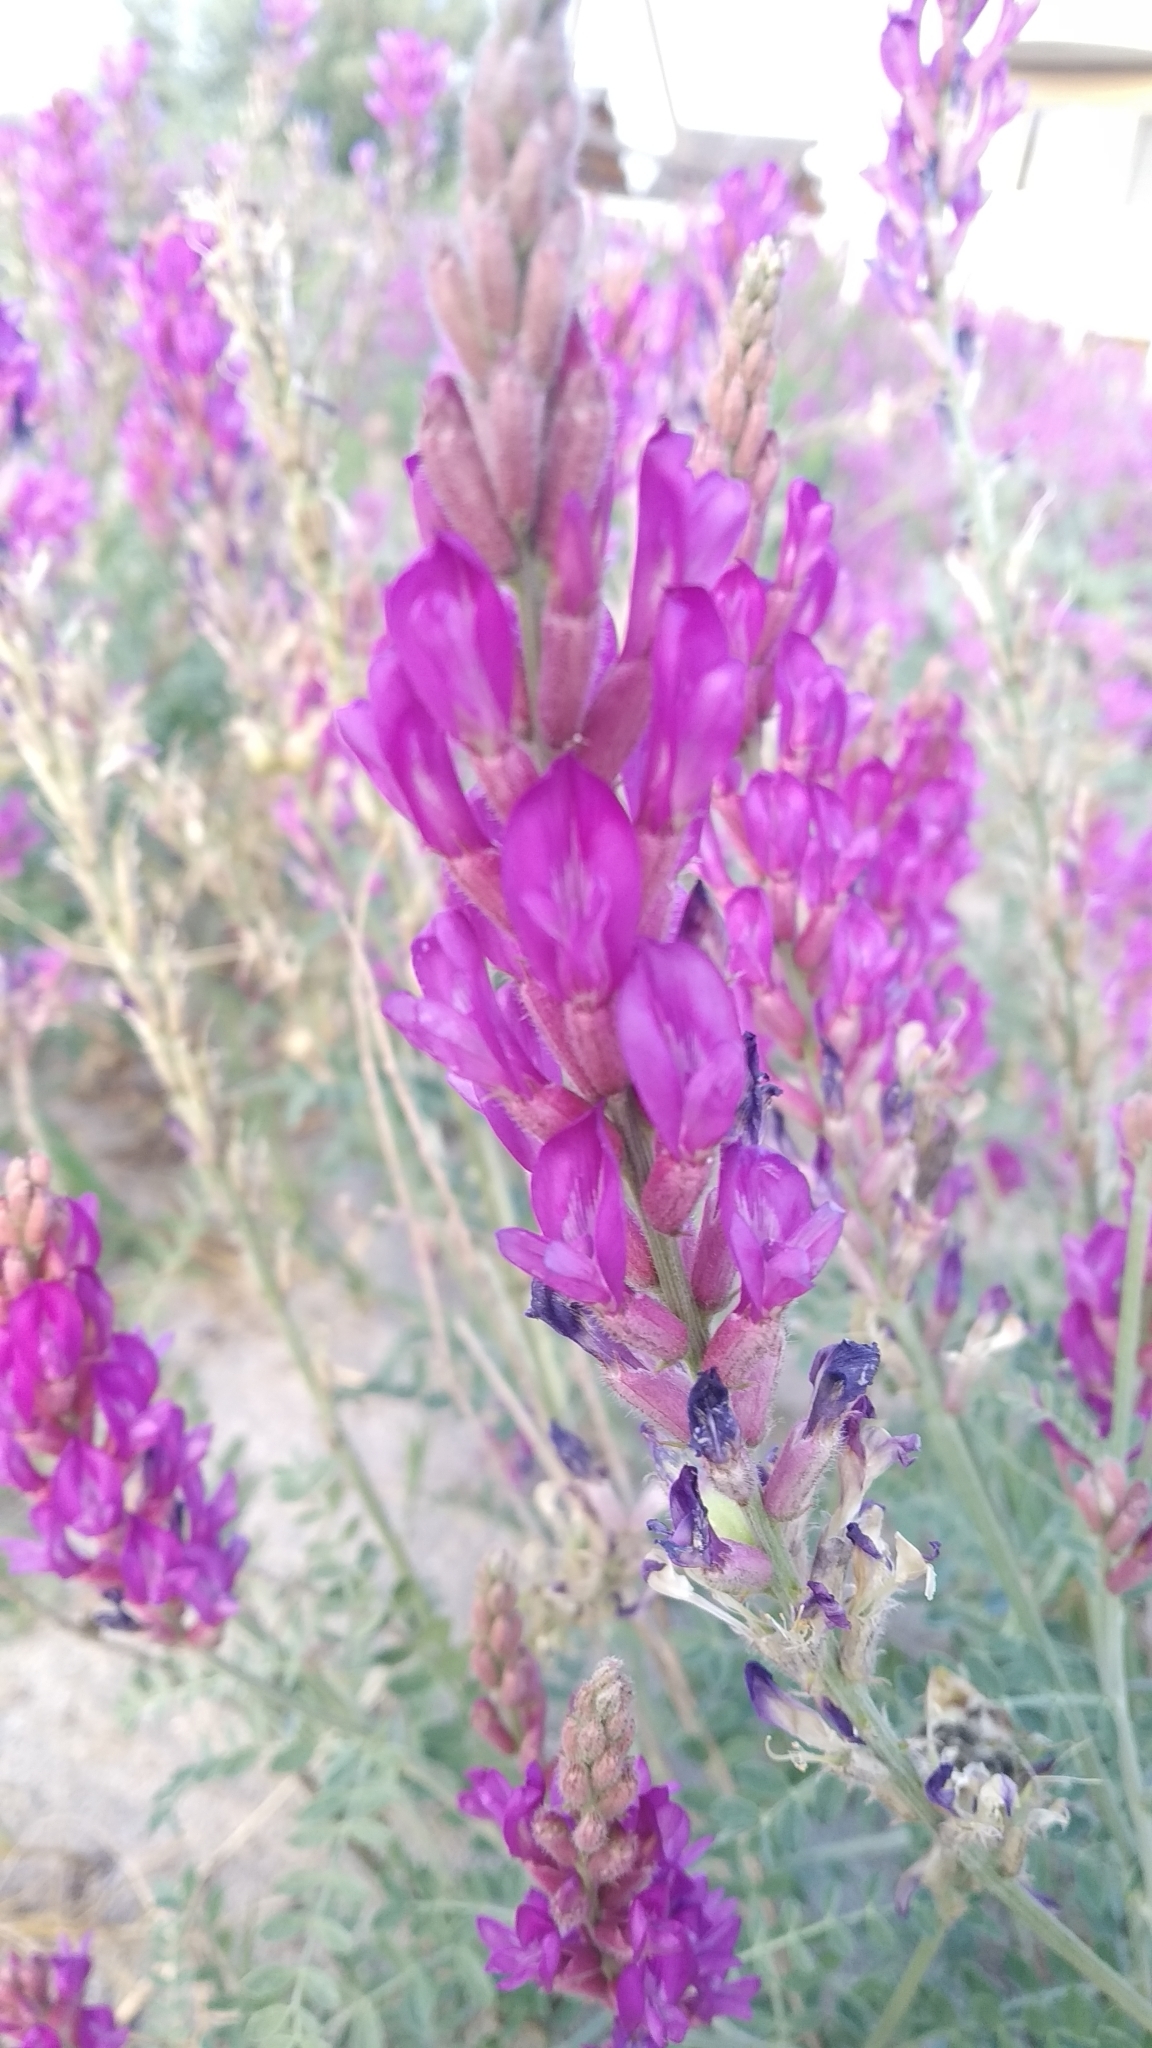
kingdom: Plantae
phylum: Tracheophyta
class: Magnoliopsida
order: Fabales
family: Fabaceae
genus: Astragalus
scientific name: Astragalus varius
